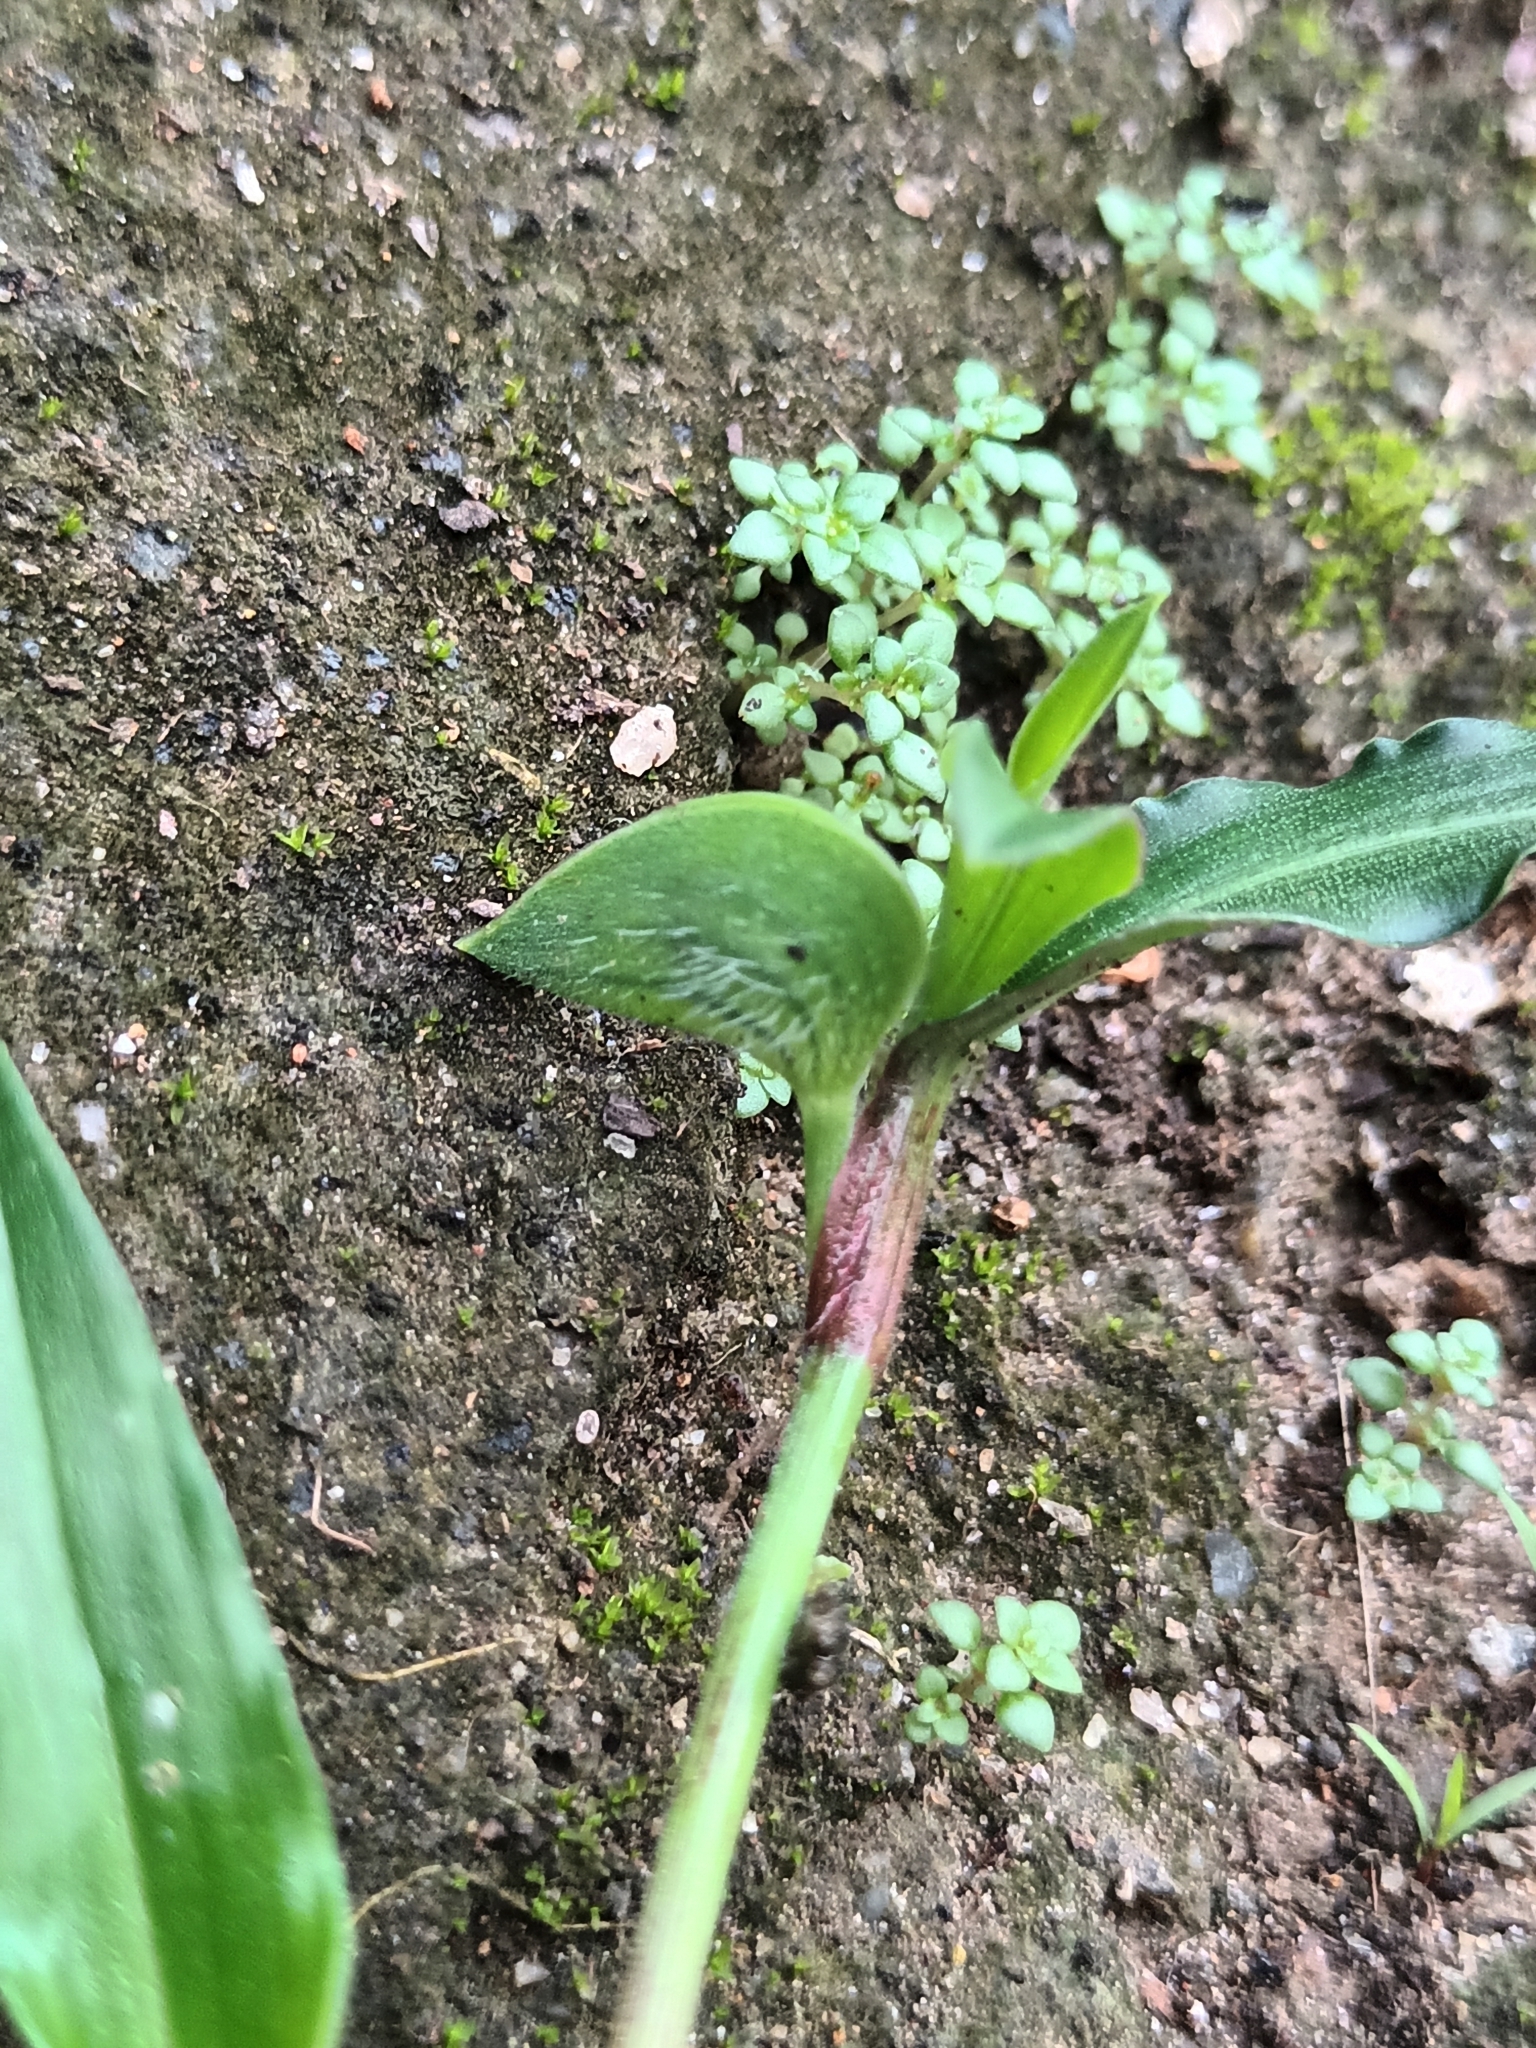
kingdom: Plantae
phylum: Tracheophyta
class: Liliopsida
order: Commelinales
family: Commelinaceae
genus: Commelina
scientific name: Commelina paleata
